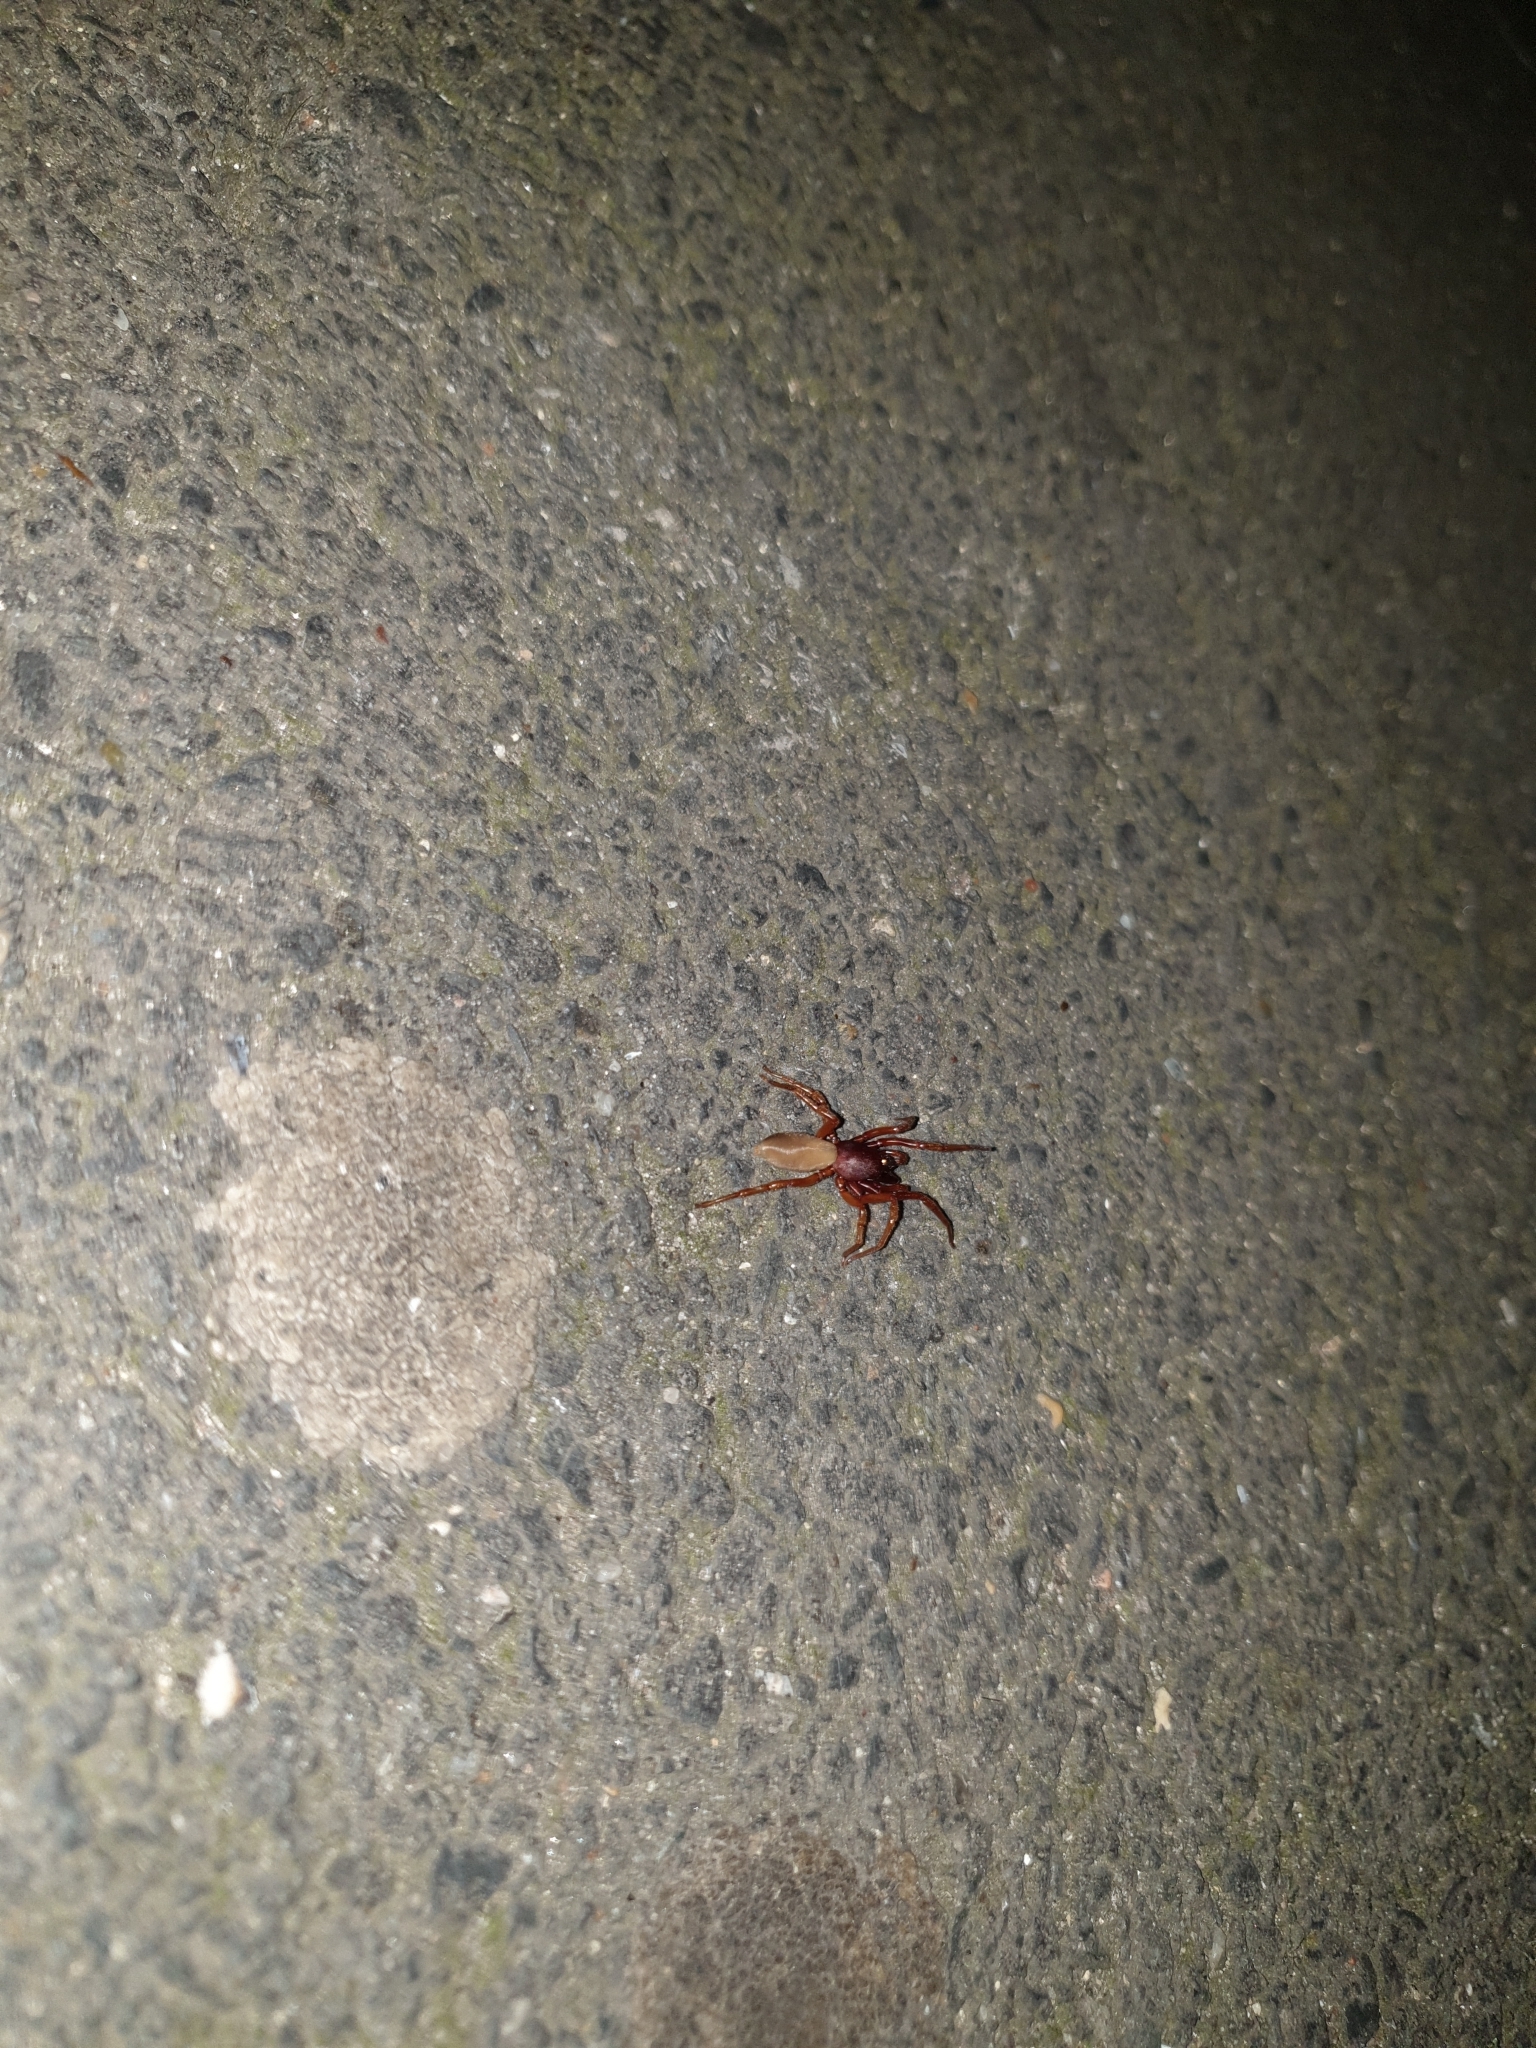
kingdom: Animalia
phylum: Arthropoda
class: Arachnida
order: Araneae
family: Dysderidae
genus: Dysdera
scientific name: Dysdera crocata
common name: Woodlouse spider
